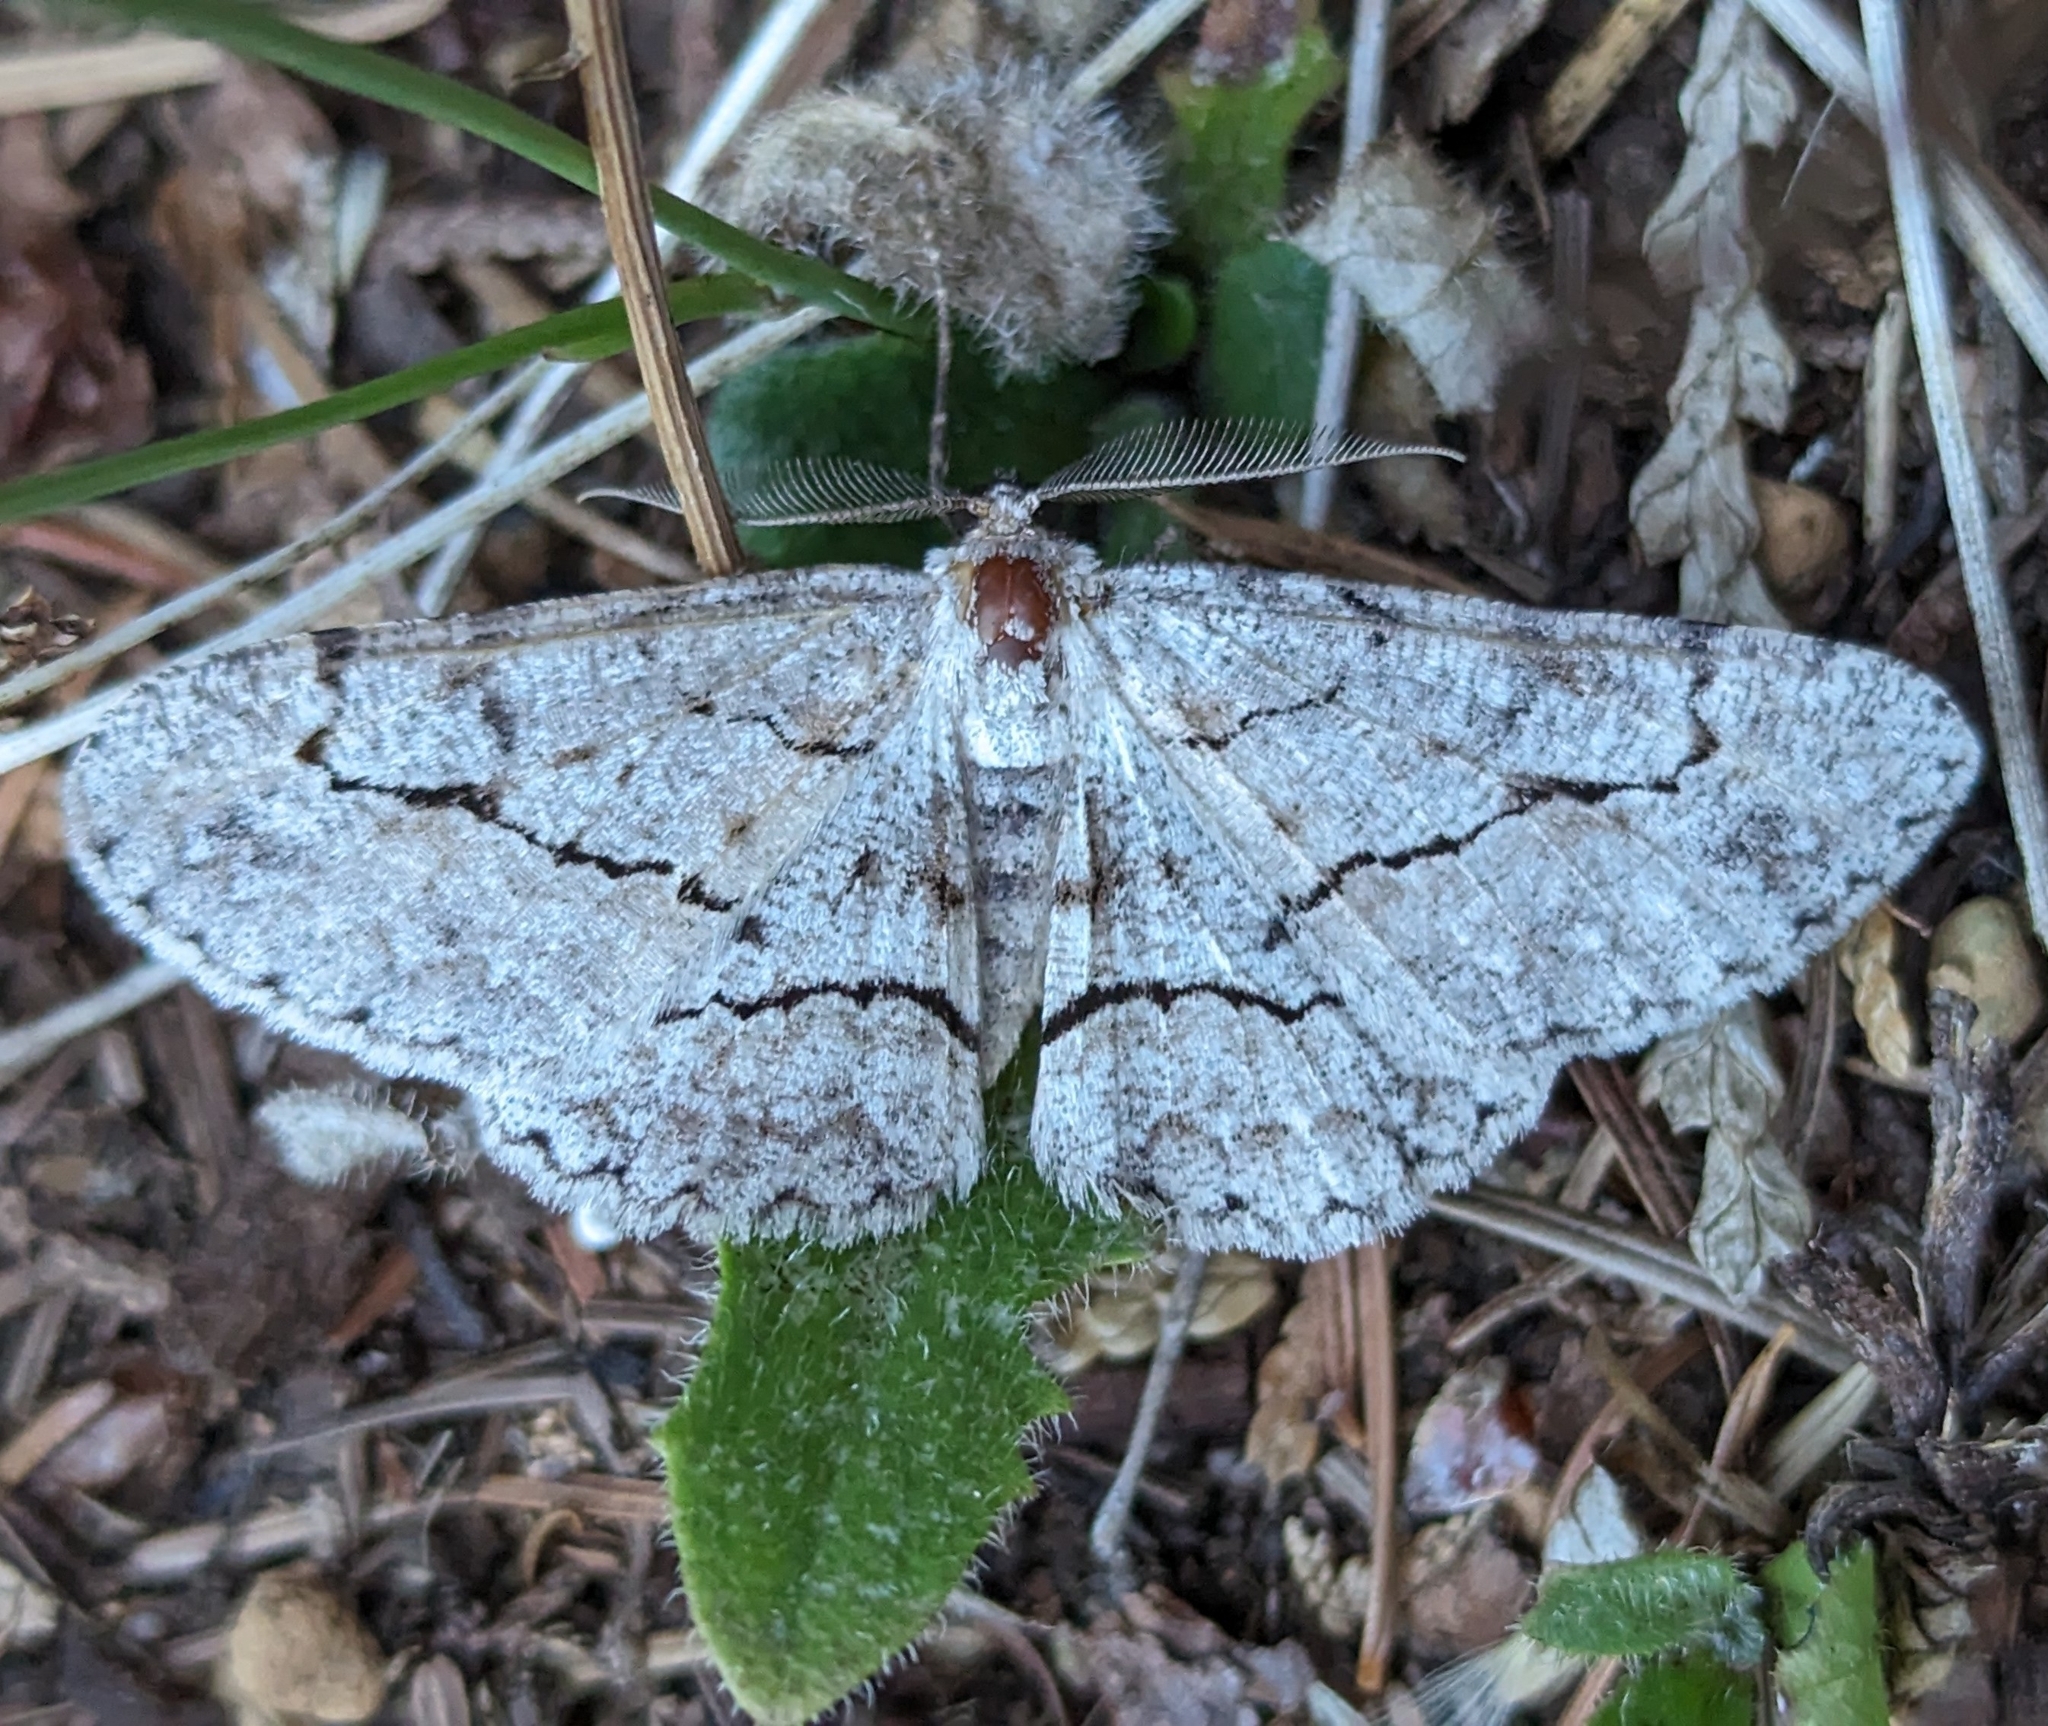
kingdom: Animalia
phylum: Arthropoda
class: Insecta
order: Lepidoptera
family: Geometridae
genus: Stenoporpia
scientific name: Stenoporpia pulmonaria
